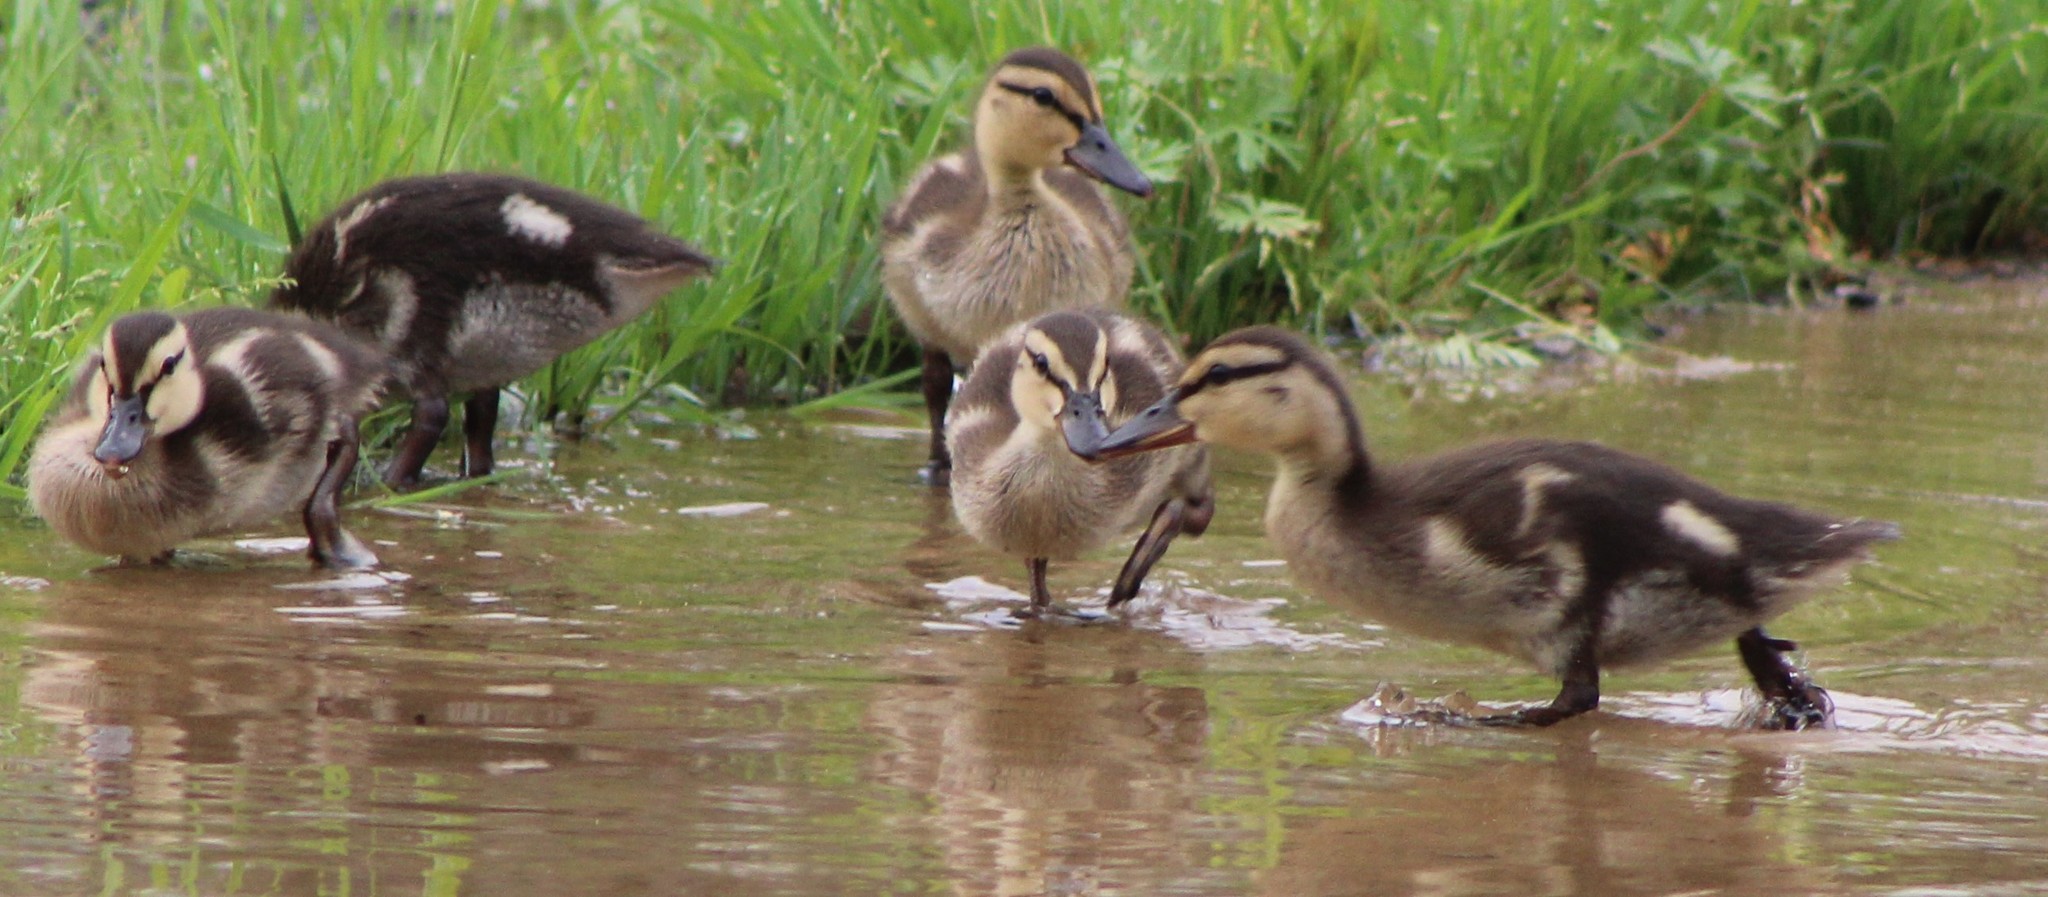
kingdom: Animalia
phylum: Chordata
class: Aves
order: Anseriformes
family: Anatidae
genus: Anas
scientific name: Anas platyrhynchos
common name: Mallard
